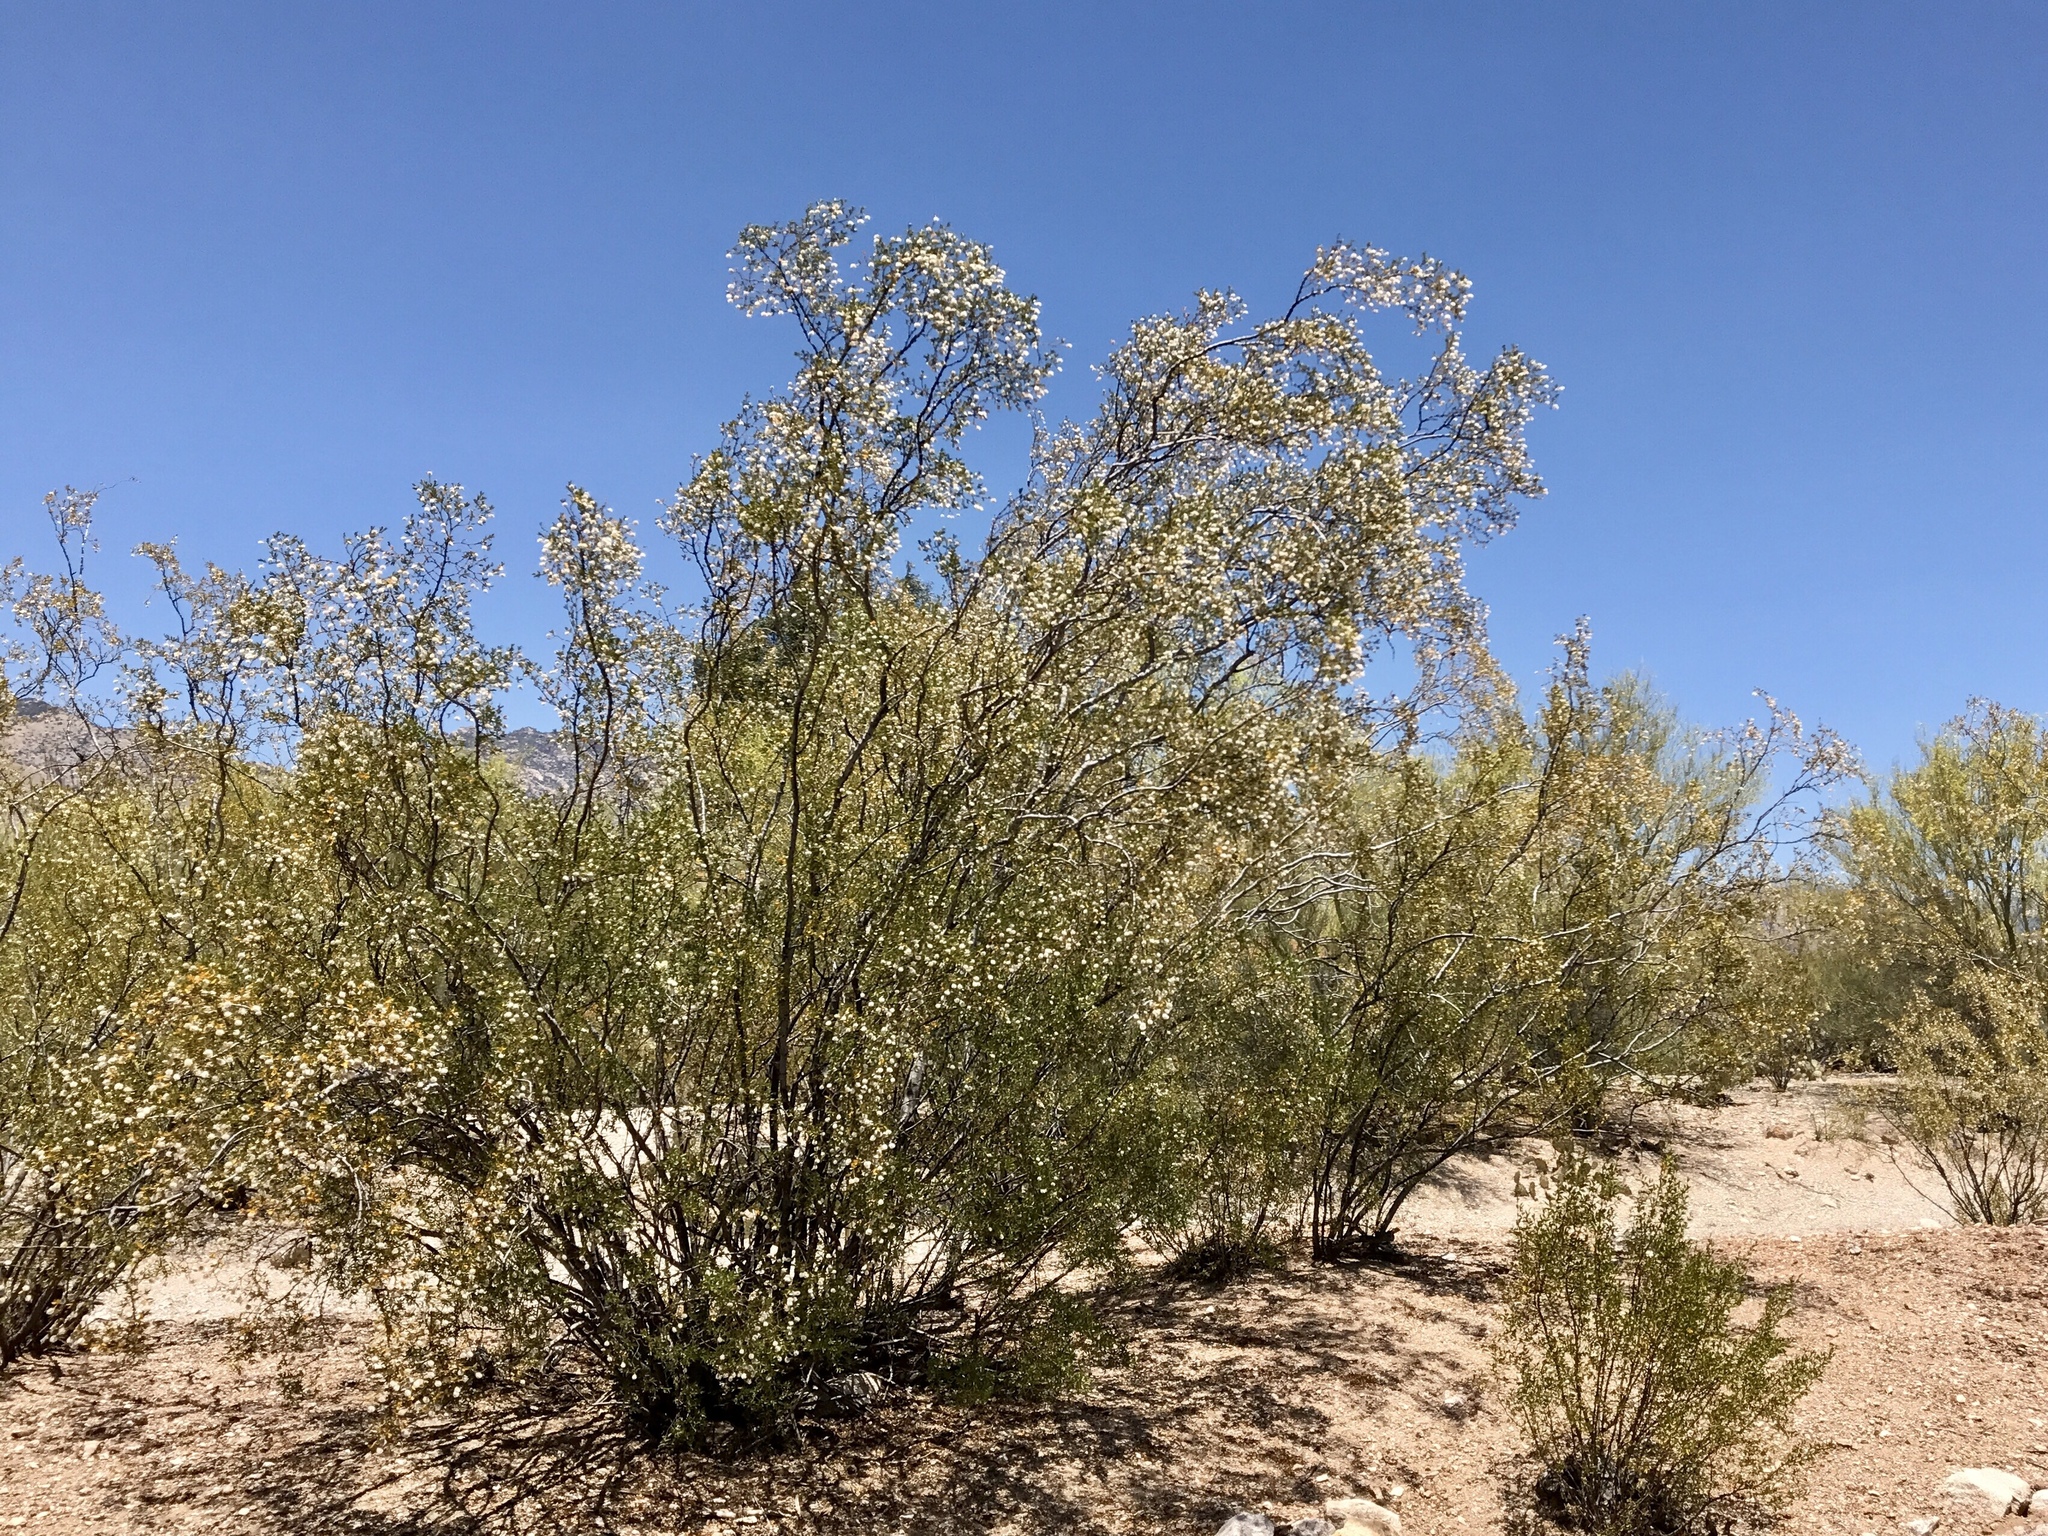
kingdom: Plantae
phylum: Tracheophyta
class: Magnoliopsida
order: Zygophyllales
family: Zygophyllaceae
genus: Larrea
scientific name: Larrea tridentata
